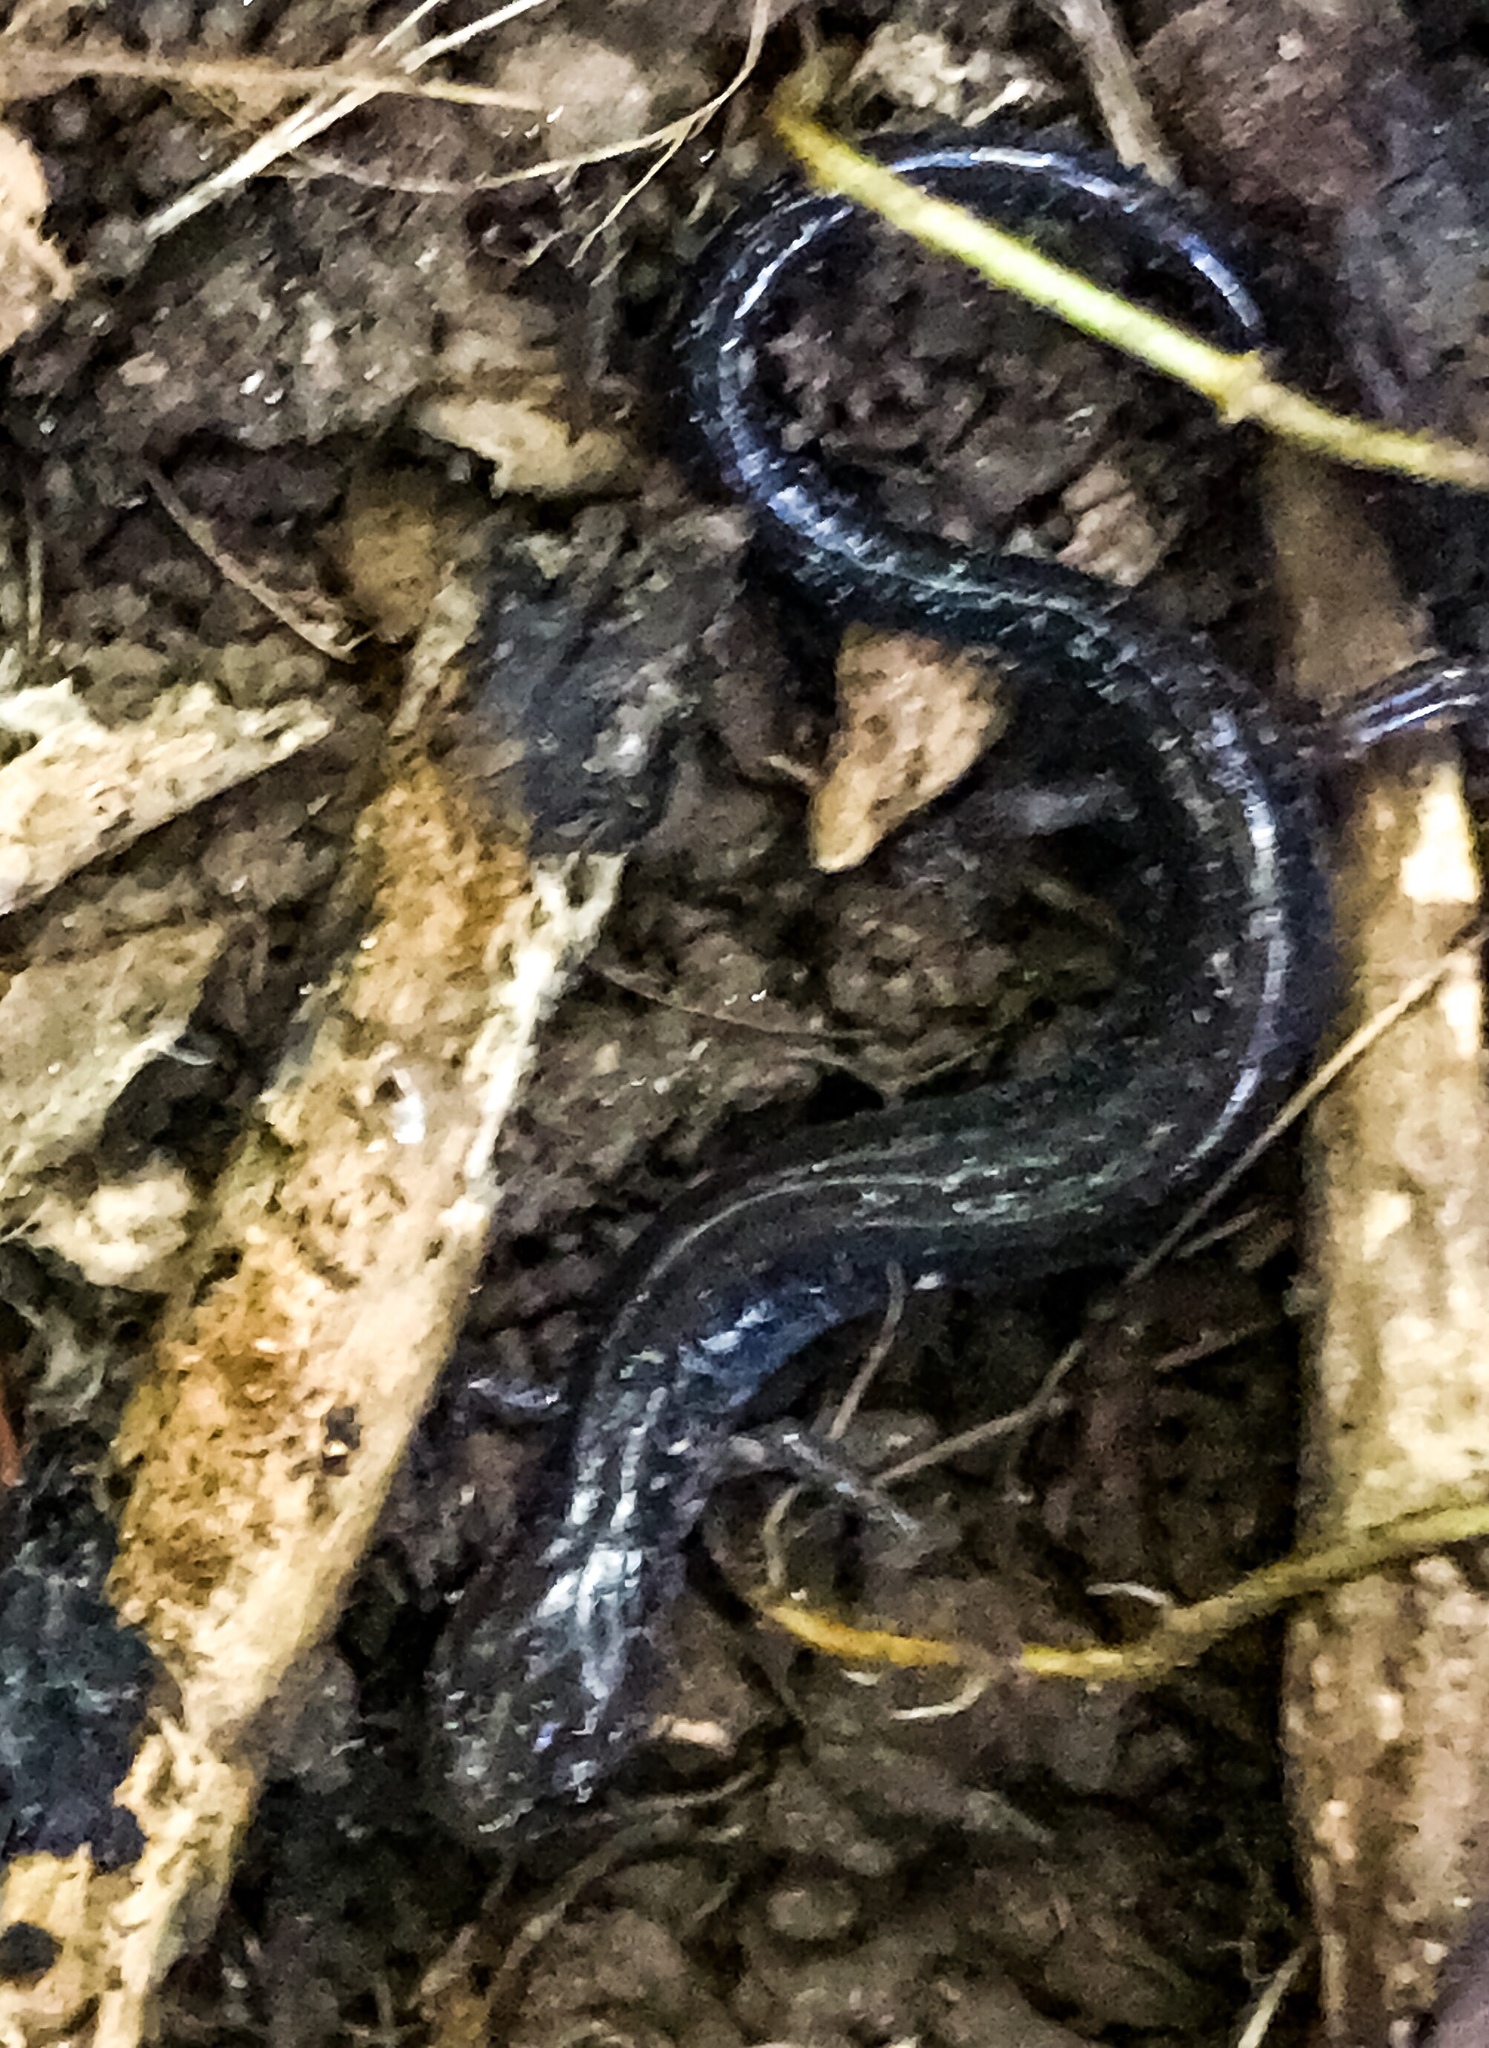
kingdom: Animalia
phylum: Chordata
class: Amphibia
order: Caudata
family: Plethodontidae
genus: Plethodon
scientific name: Plethodon cinereus
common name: Redback salamander
